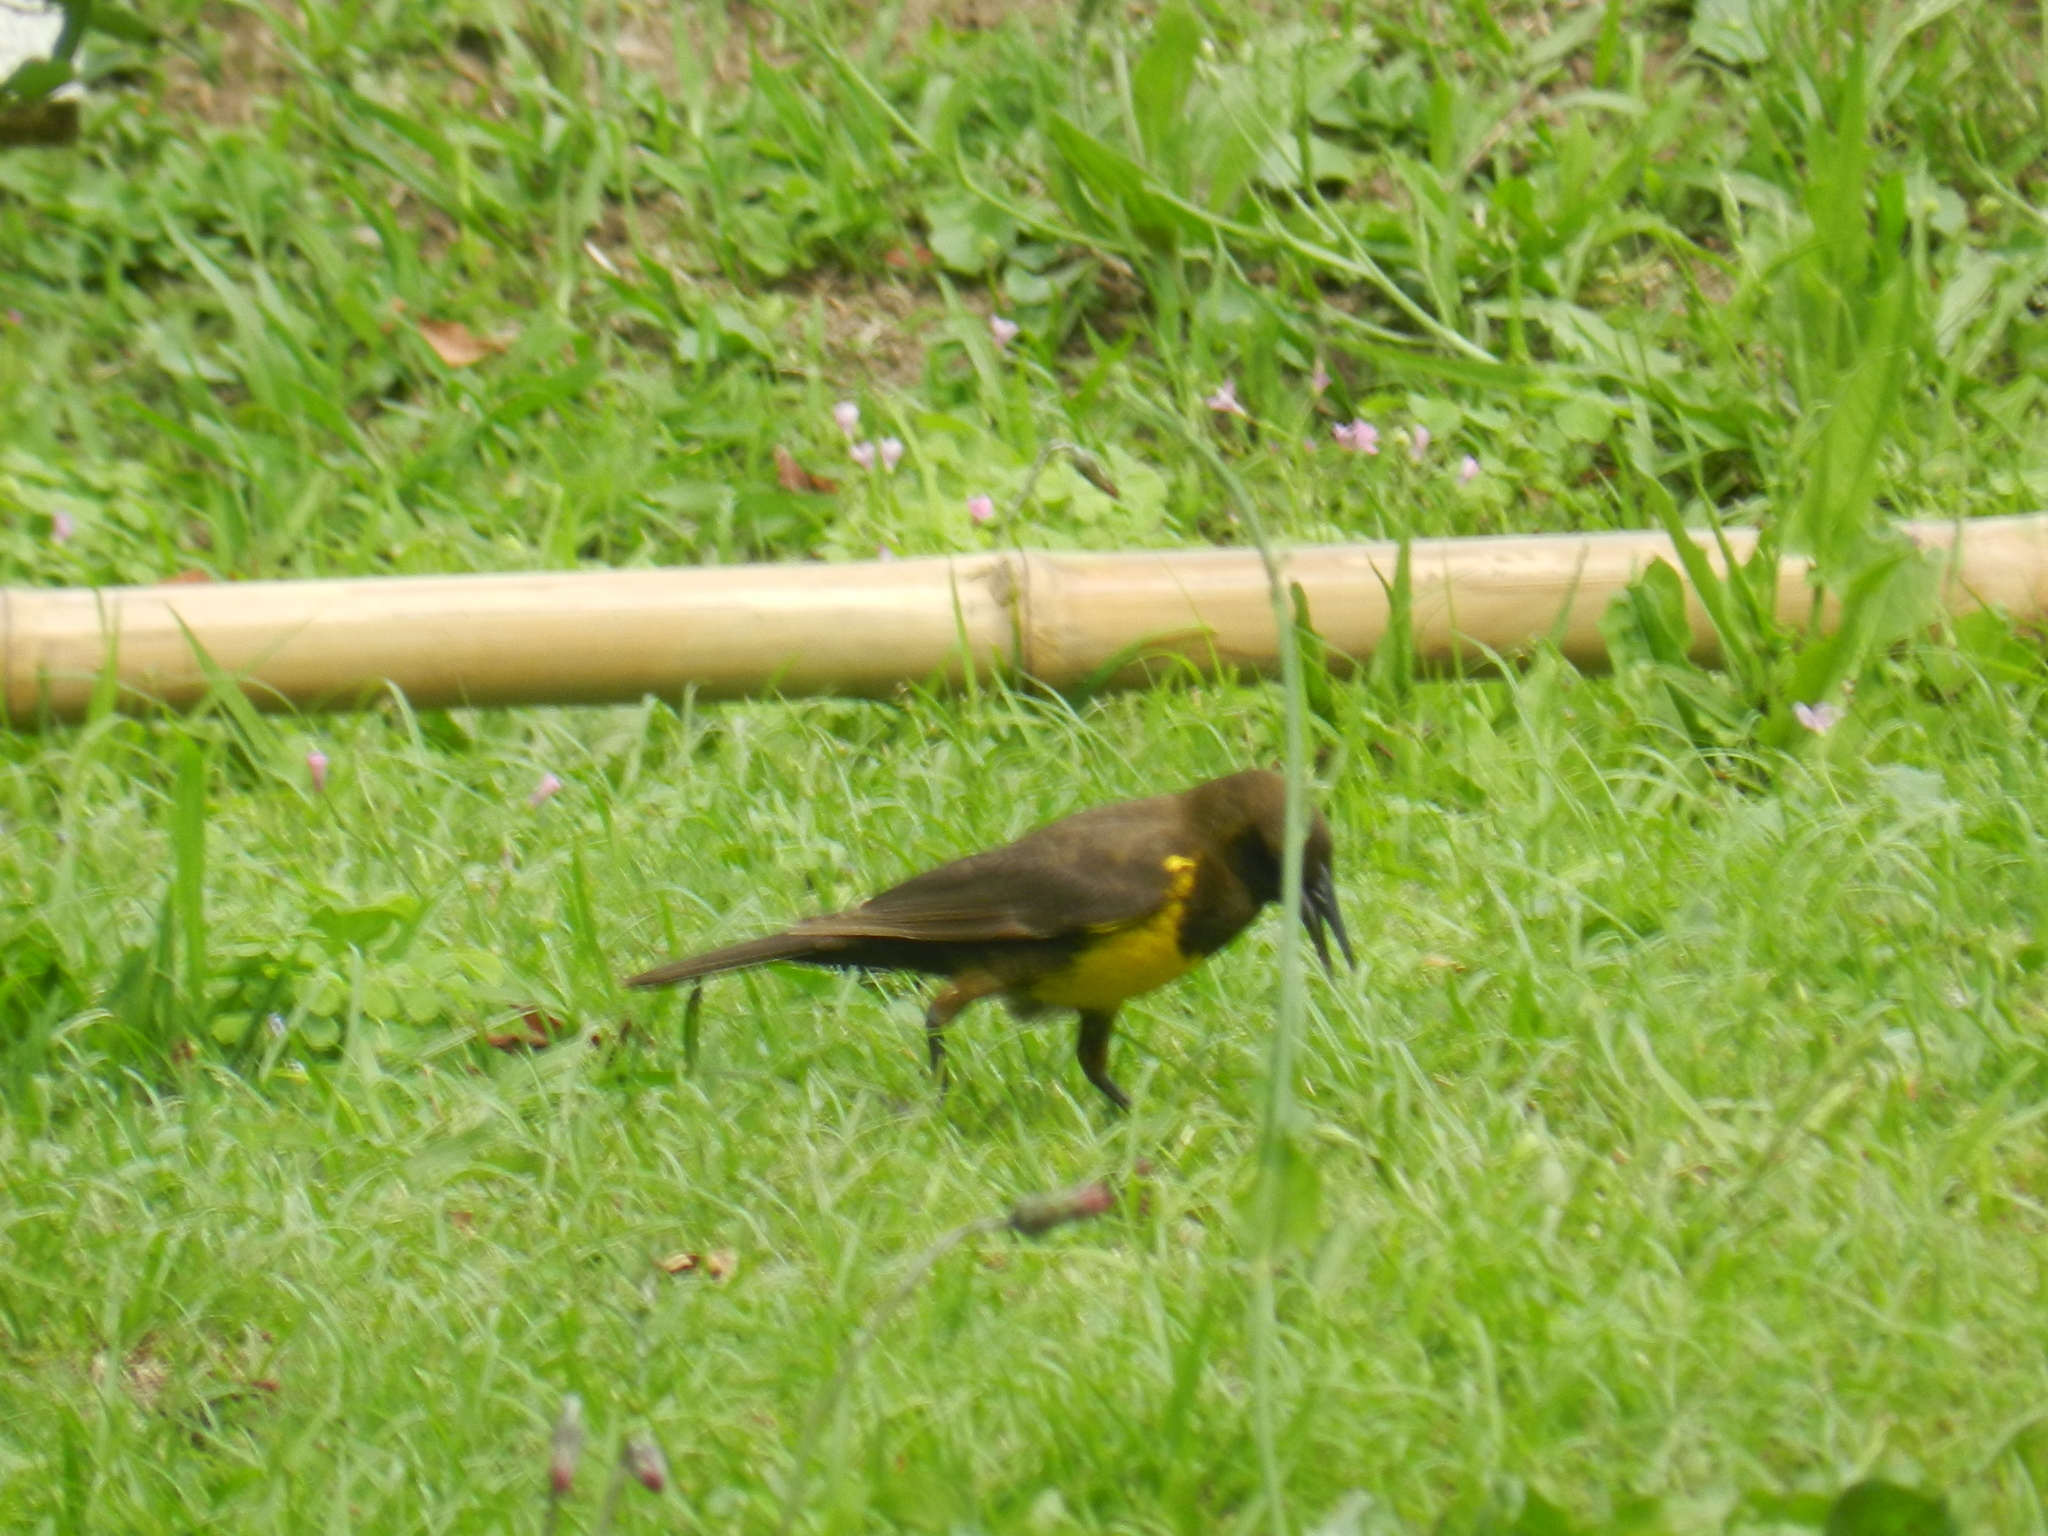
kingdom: Animalia
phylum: Chordata
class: Aves
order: Passeriformes
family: Icteridae
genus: Pseudoleistes
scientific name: Pseudoleistes virescens
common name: Brown-and-yellow marshbird
